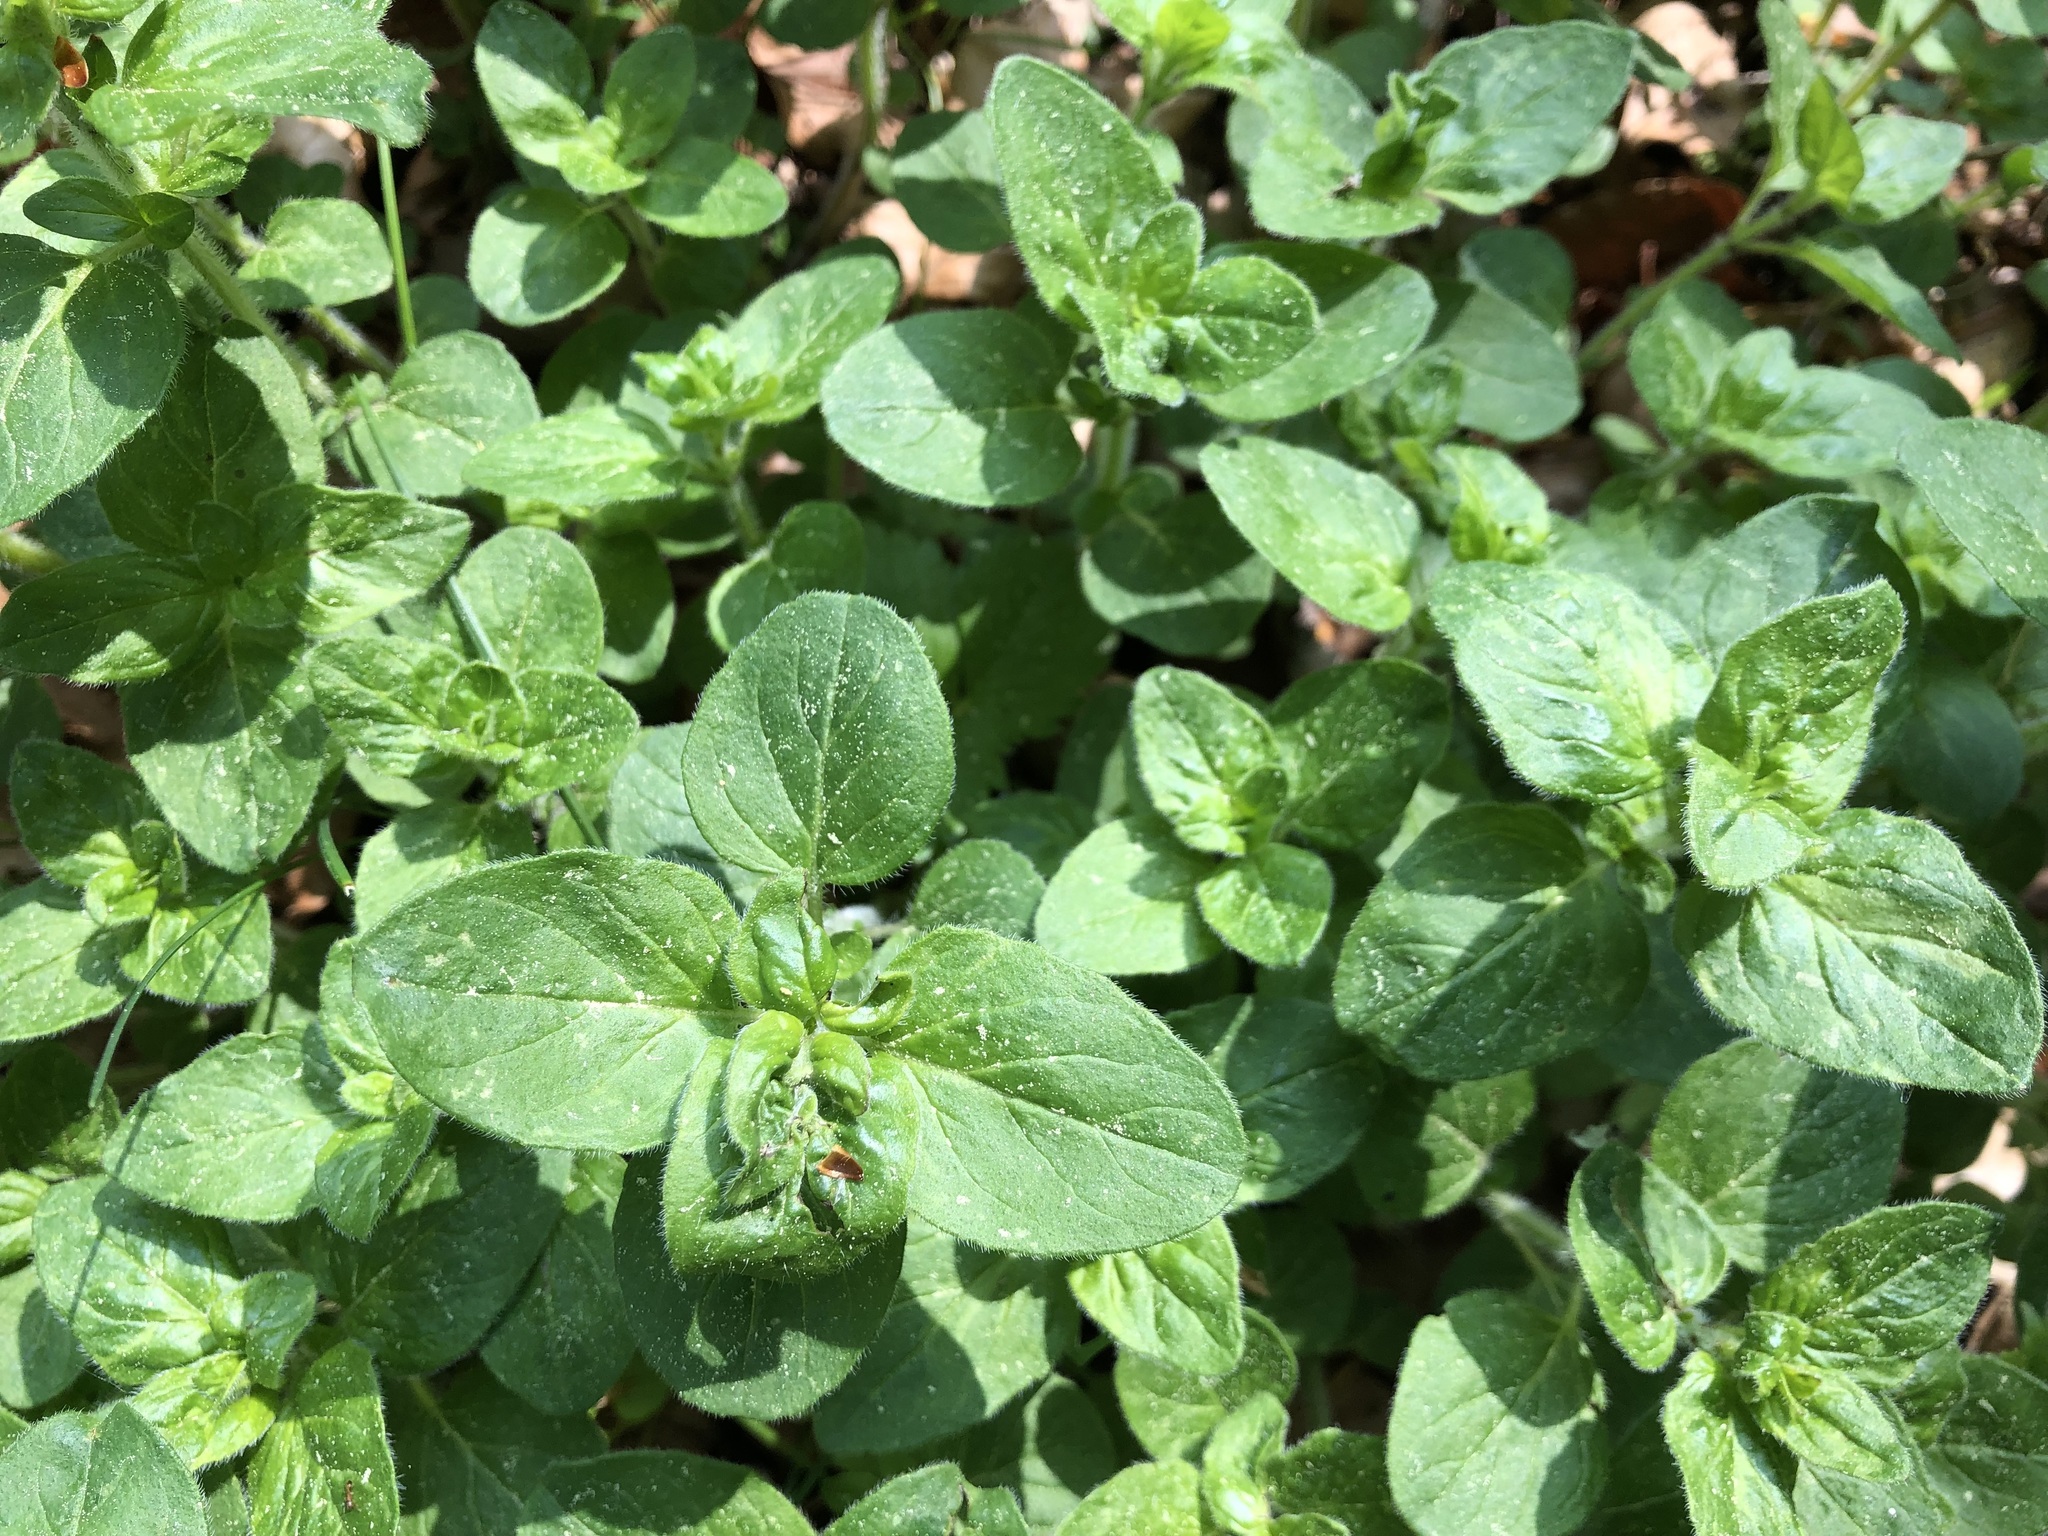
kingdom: Plantae
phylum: Tracheophyta
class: Magnoliopsida
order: Lamiales
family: Lamiaceae
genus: Origanum
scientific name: Origanum vulgare
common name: Wild marjoram
